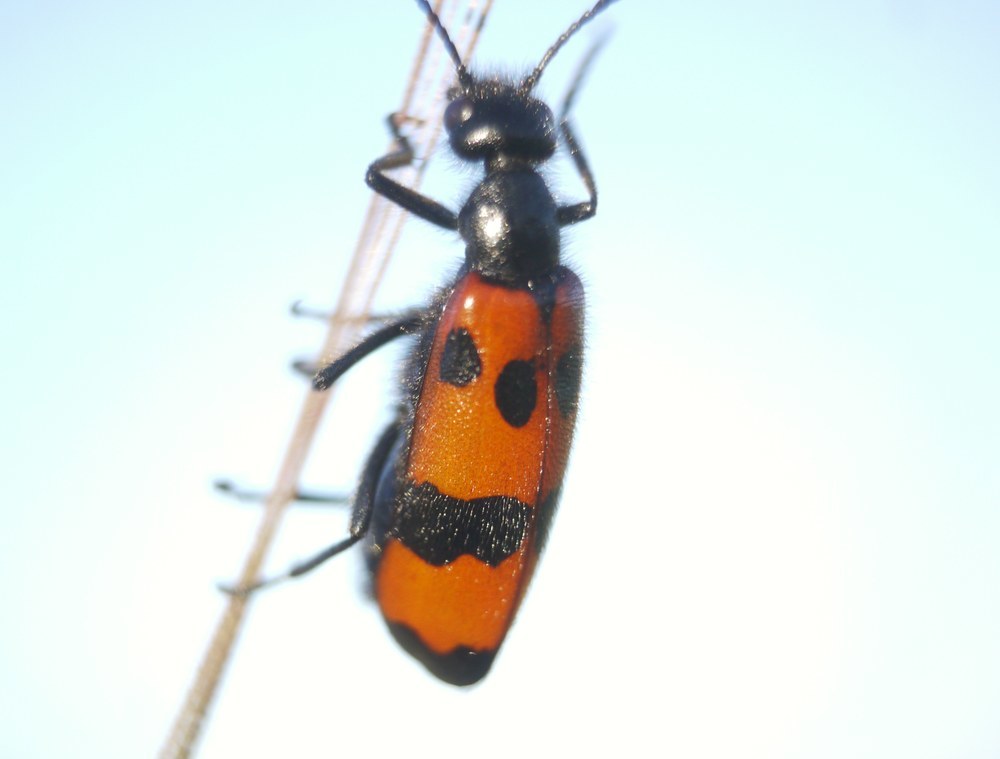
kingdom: Animalia
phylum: Arthropoda
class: Insecta
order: Coleoptera
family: Meloidae
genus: Mylabris
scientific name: Mylabris quadripunctata
